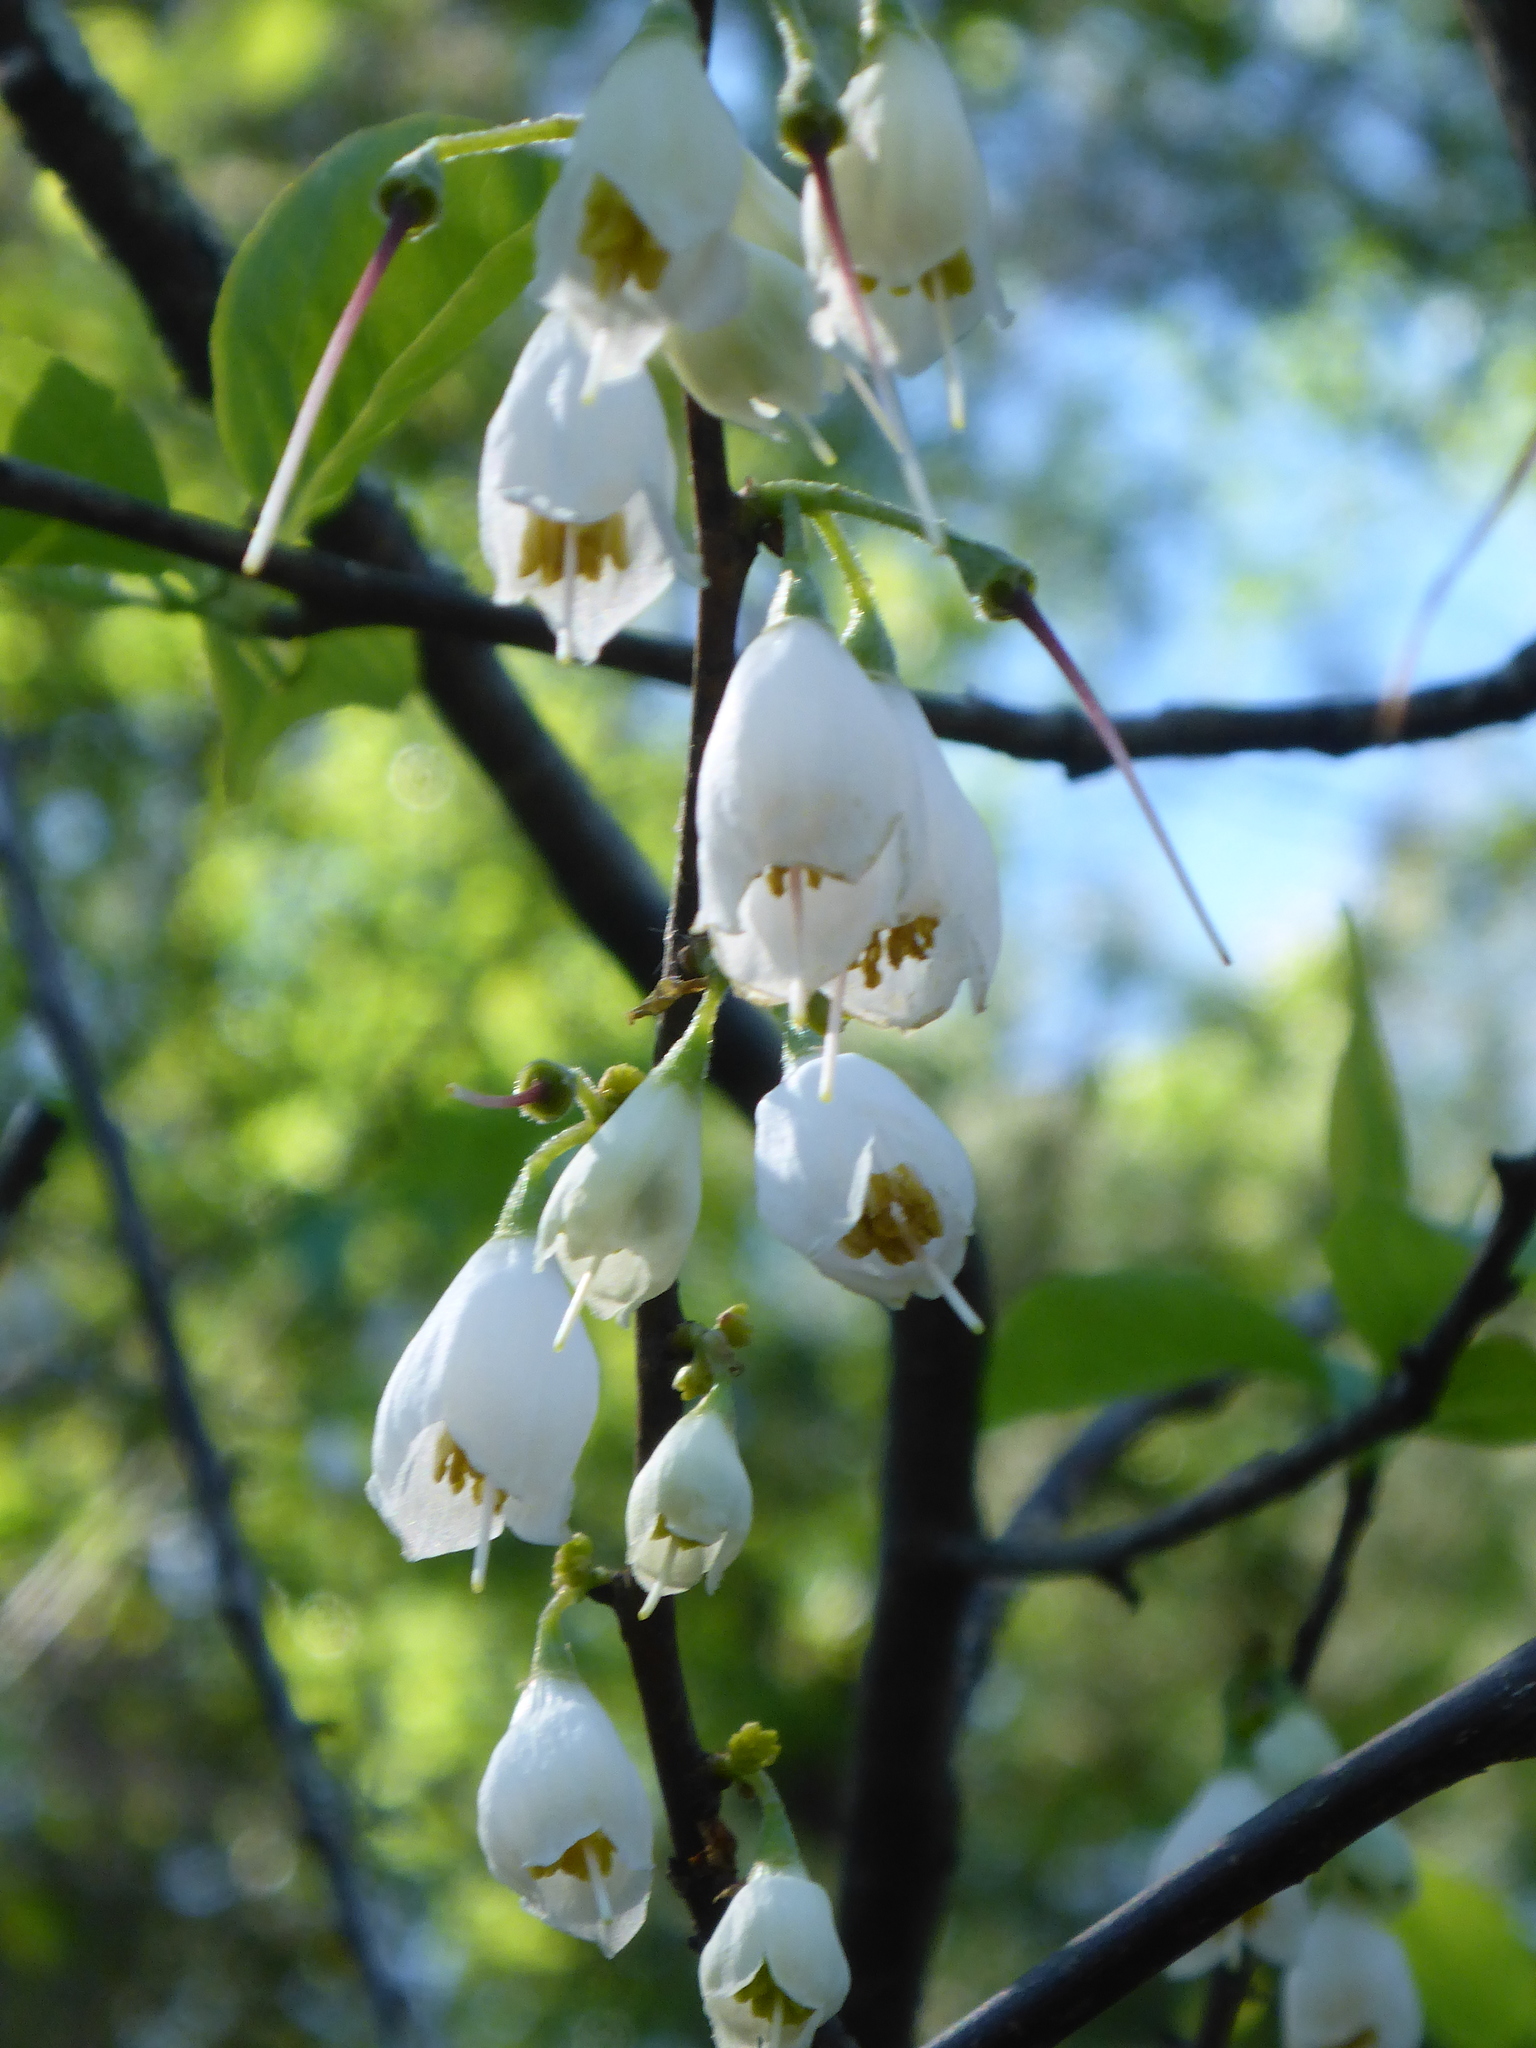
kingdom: Plantae
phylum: Tracheophyta
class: Magnoliopsida
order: Ericales
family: Styracaceae
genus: Halesia
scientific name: Halesia carolina
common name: Carolina silverbell
